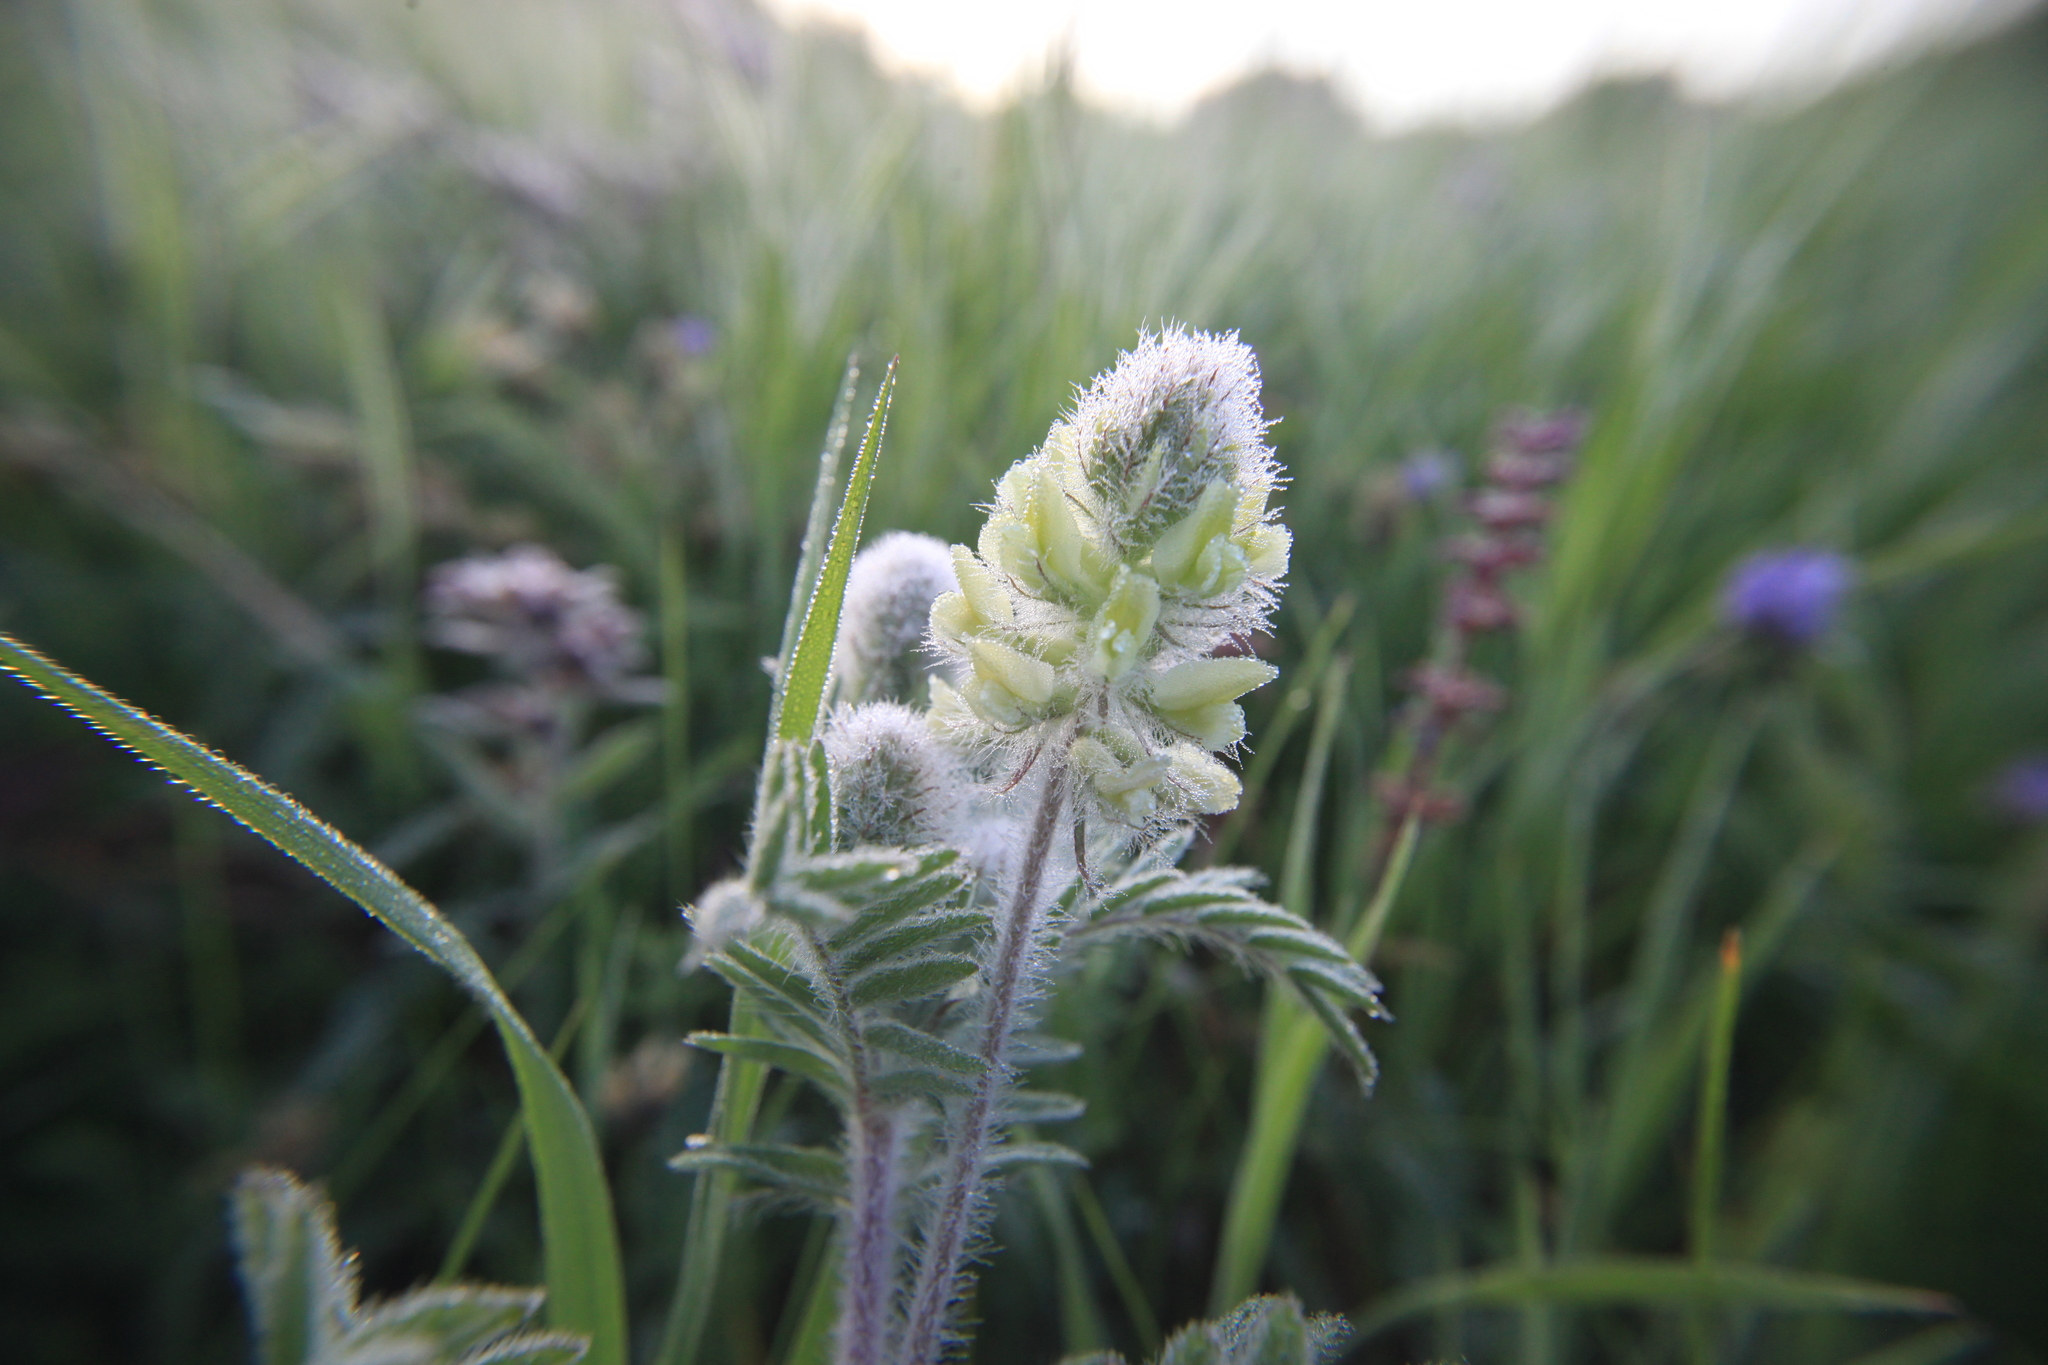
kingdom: Plantae
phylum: Tracheophyta
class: Magnoliopsida
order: Fabales
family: Fabaceae
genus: Oxytropis
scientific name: Oxytropis pilosa
